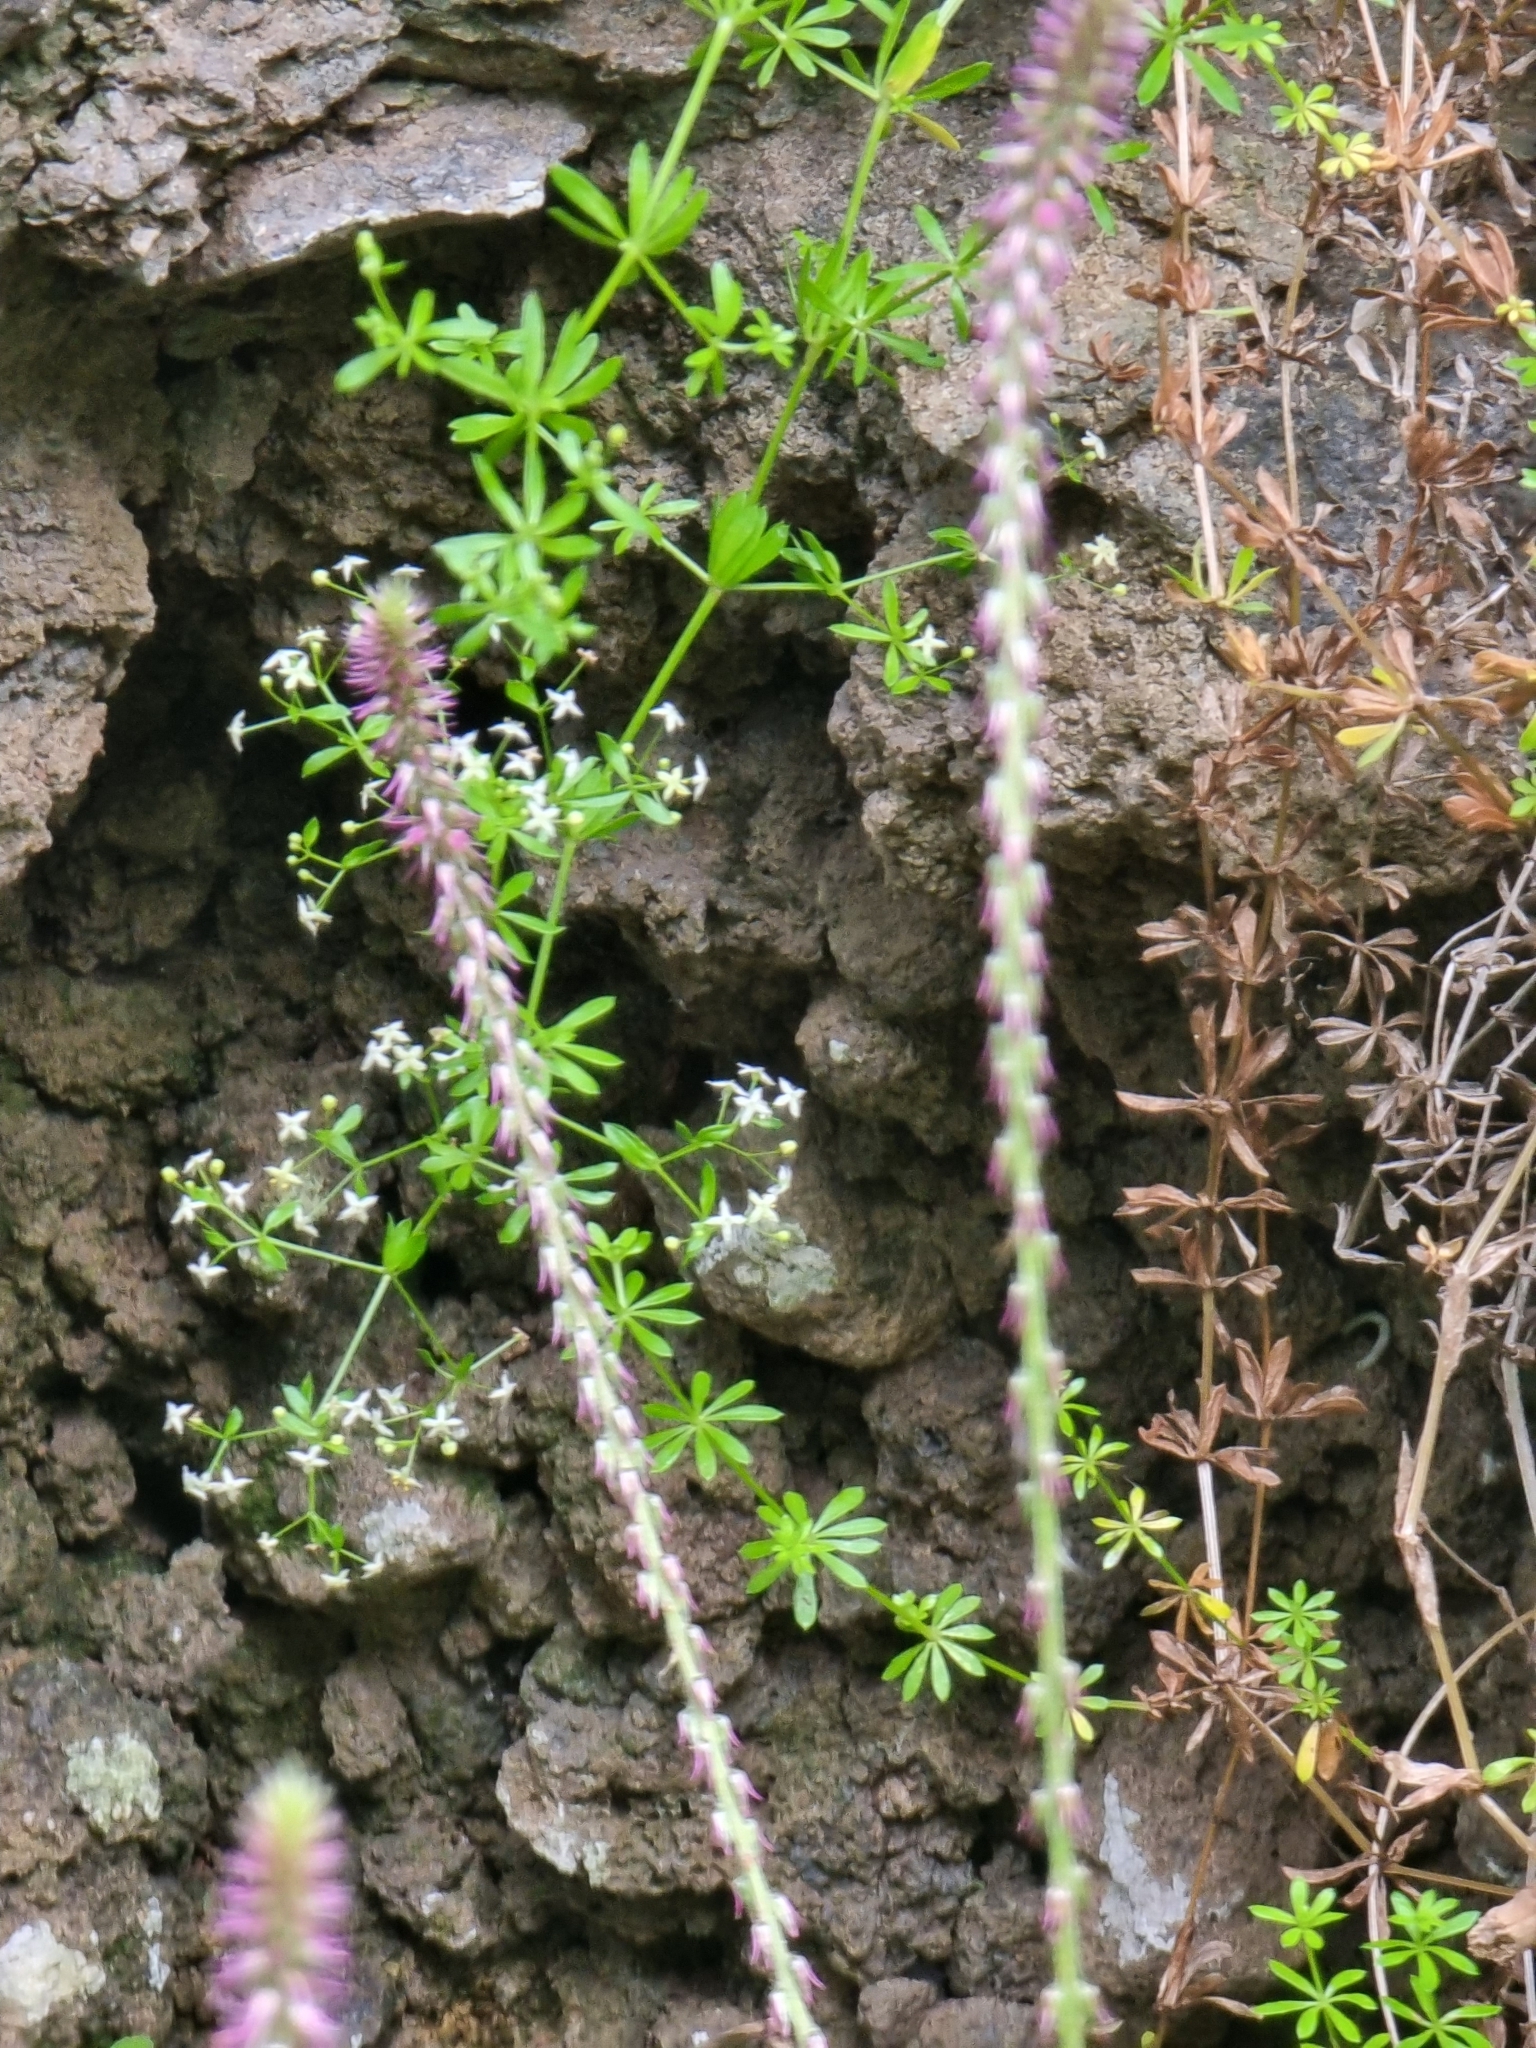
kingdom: Plantae
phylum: Tracheophyta
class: Magnoliopsida
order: Gentianales
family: Rubiaceae
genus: Galium
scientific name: Galium productum
